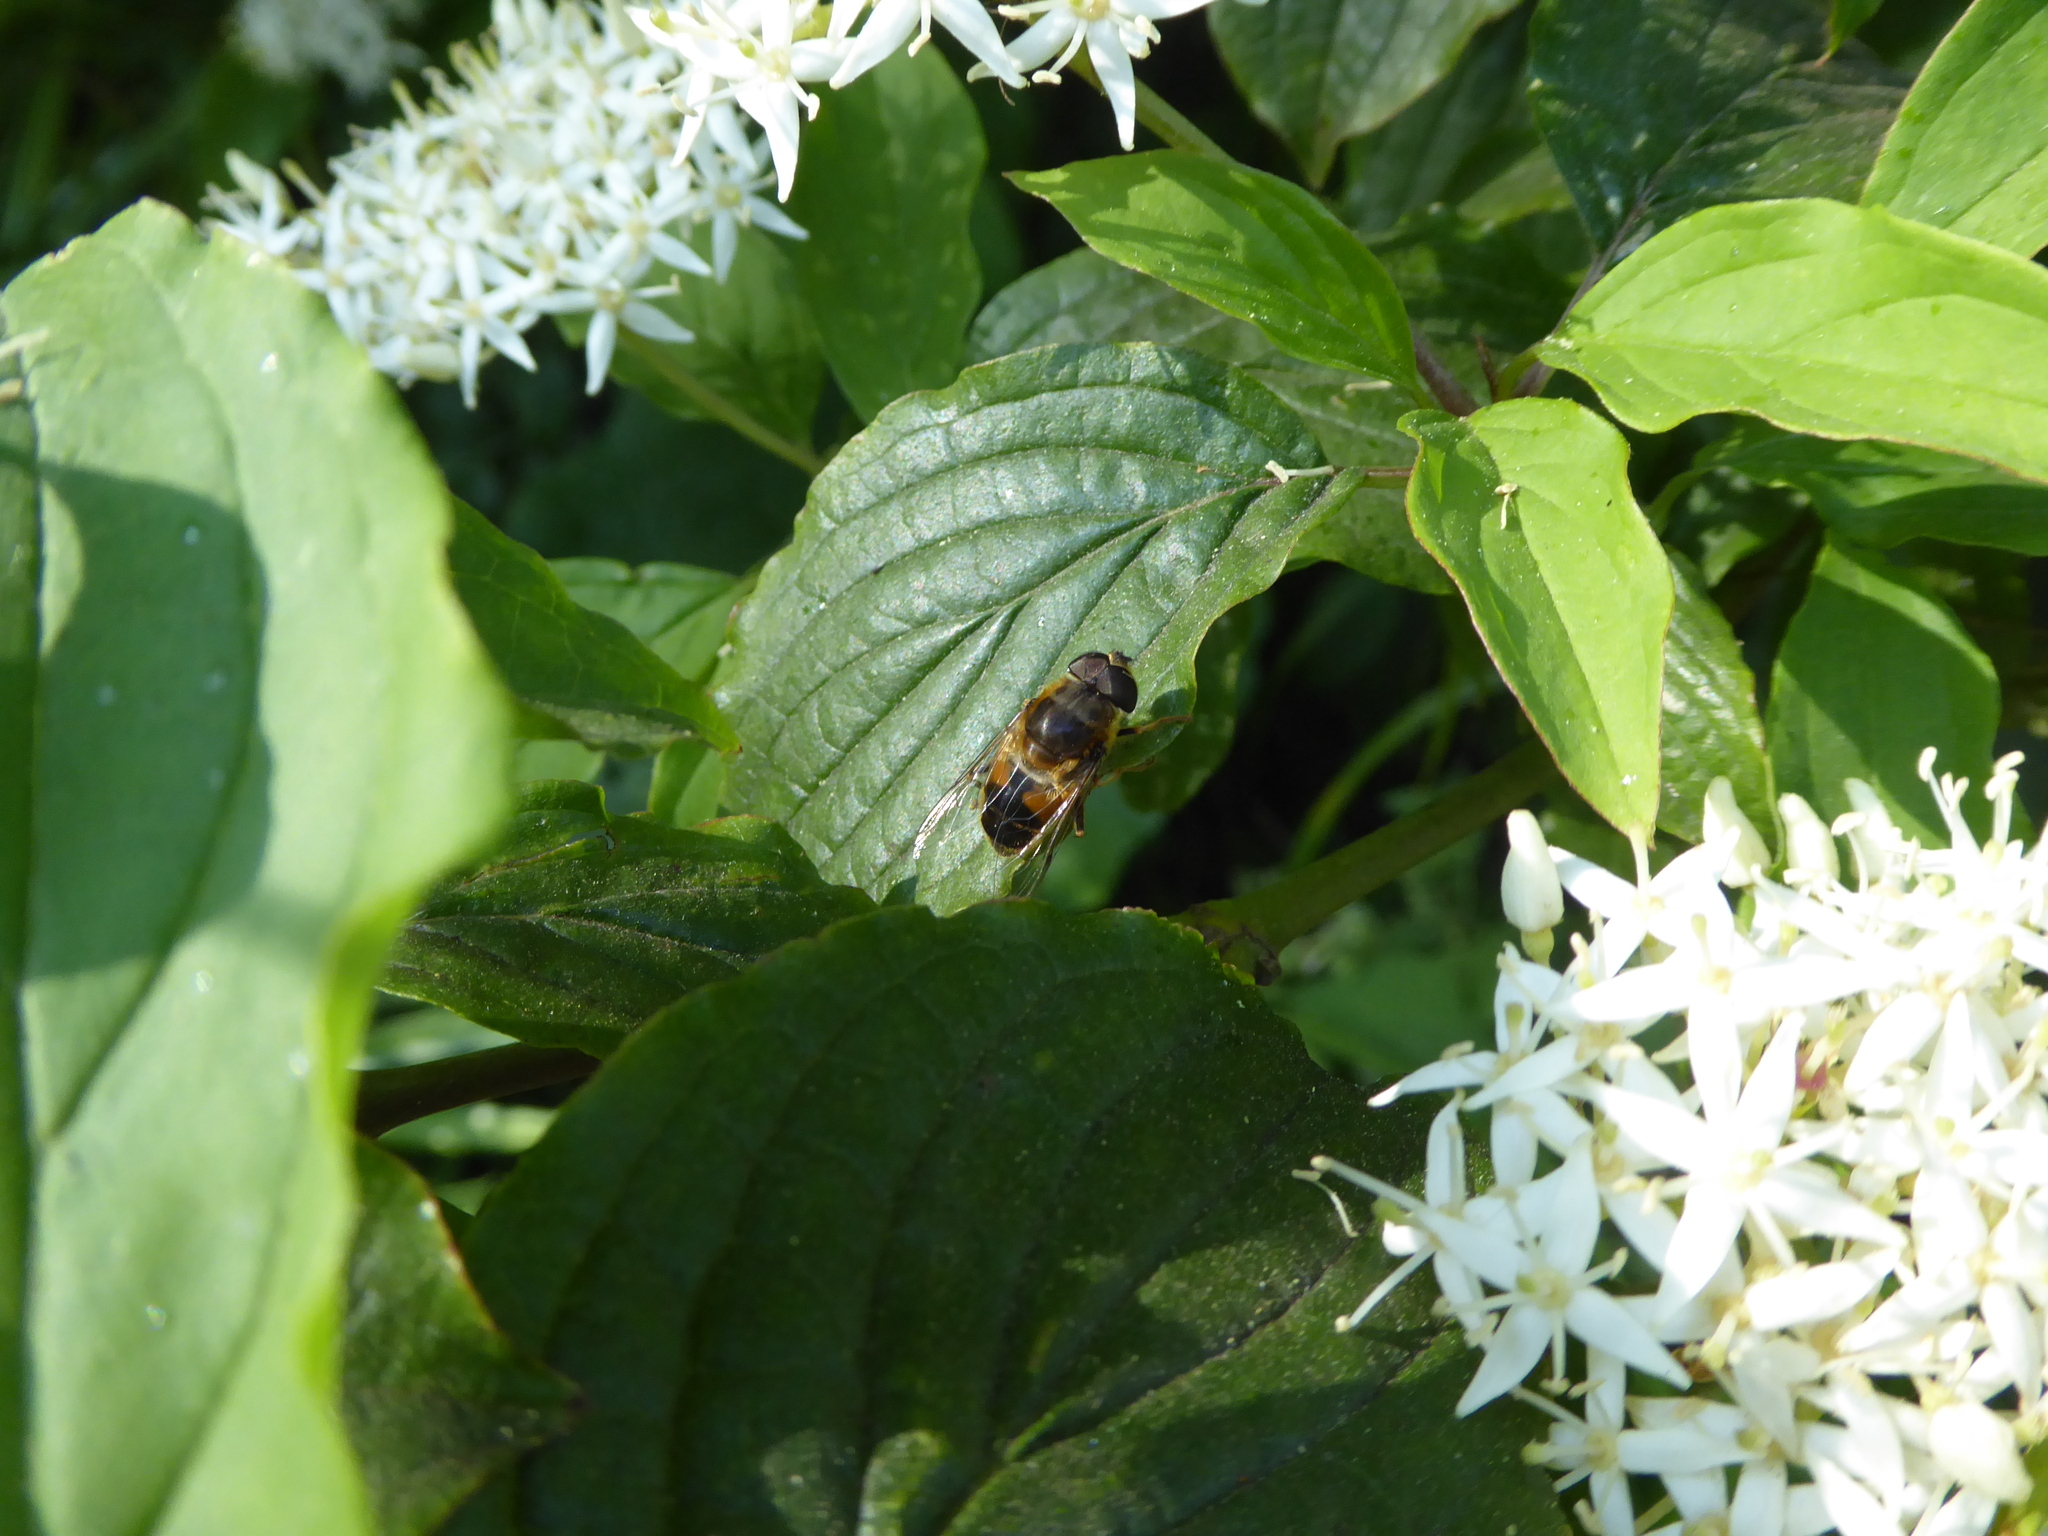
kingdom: Animalia
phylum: Arthropoda
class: Insecta
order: Diptera
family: Syrphidae
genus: Eristalis
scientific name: Eristalis pertinax
